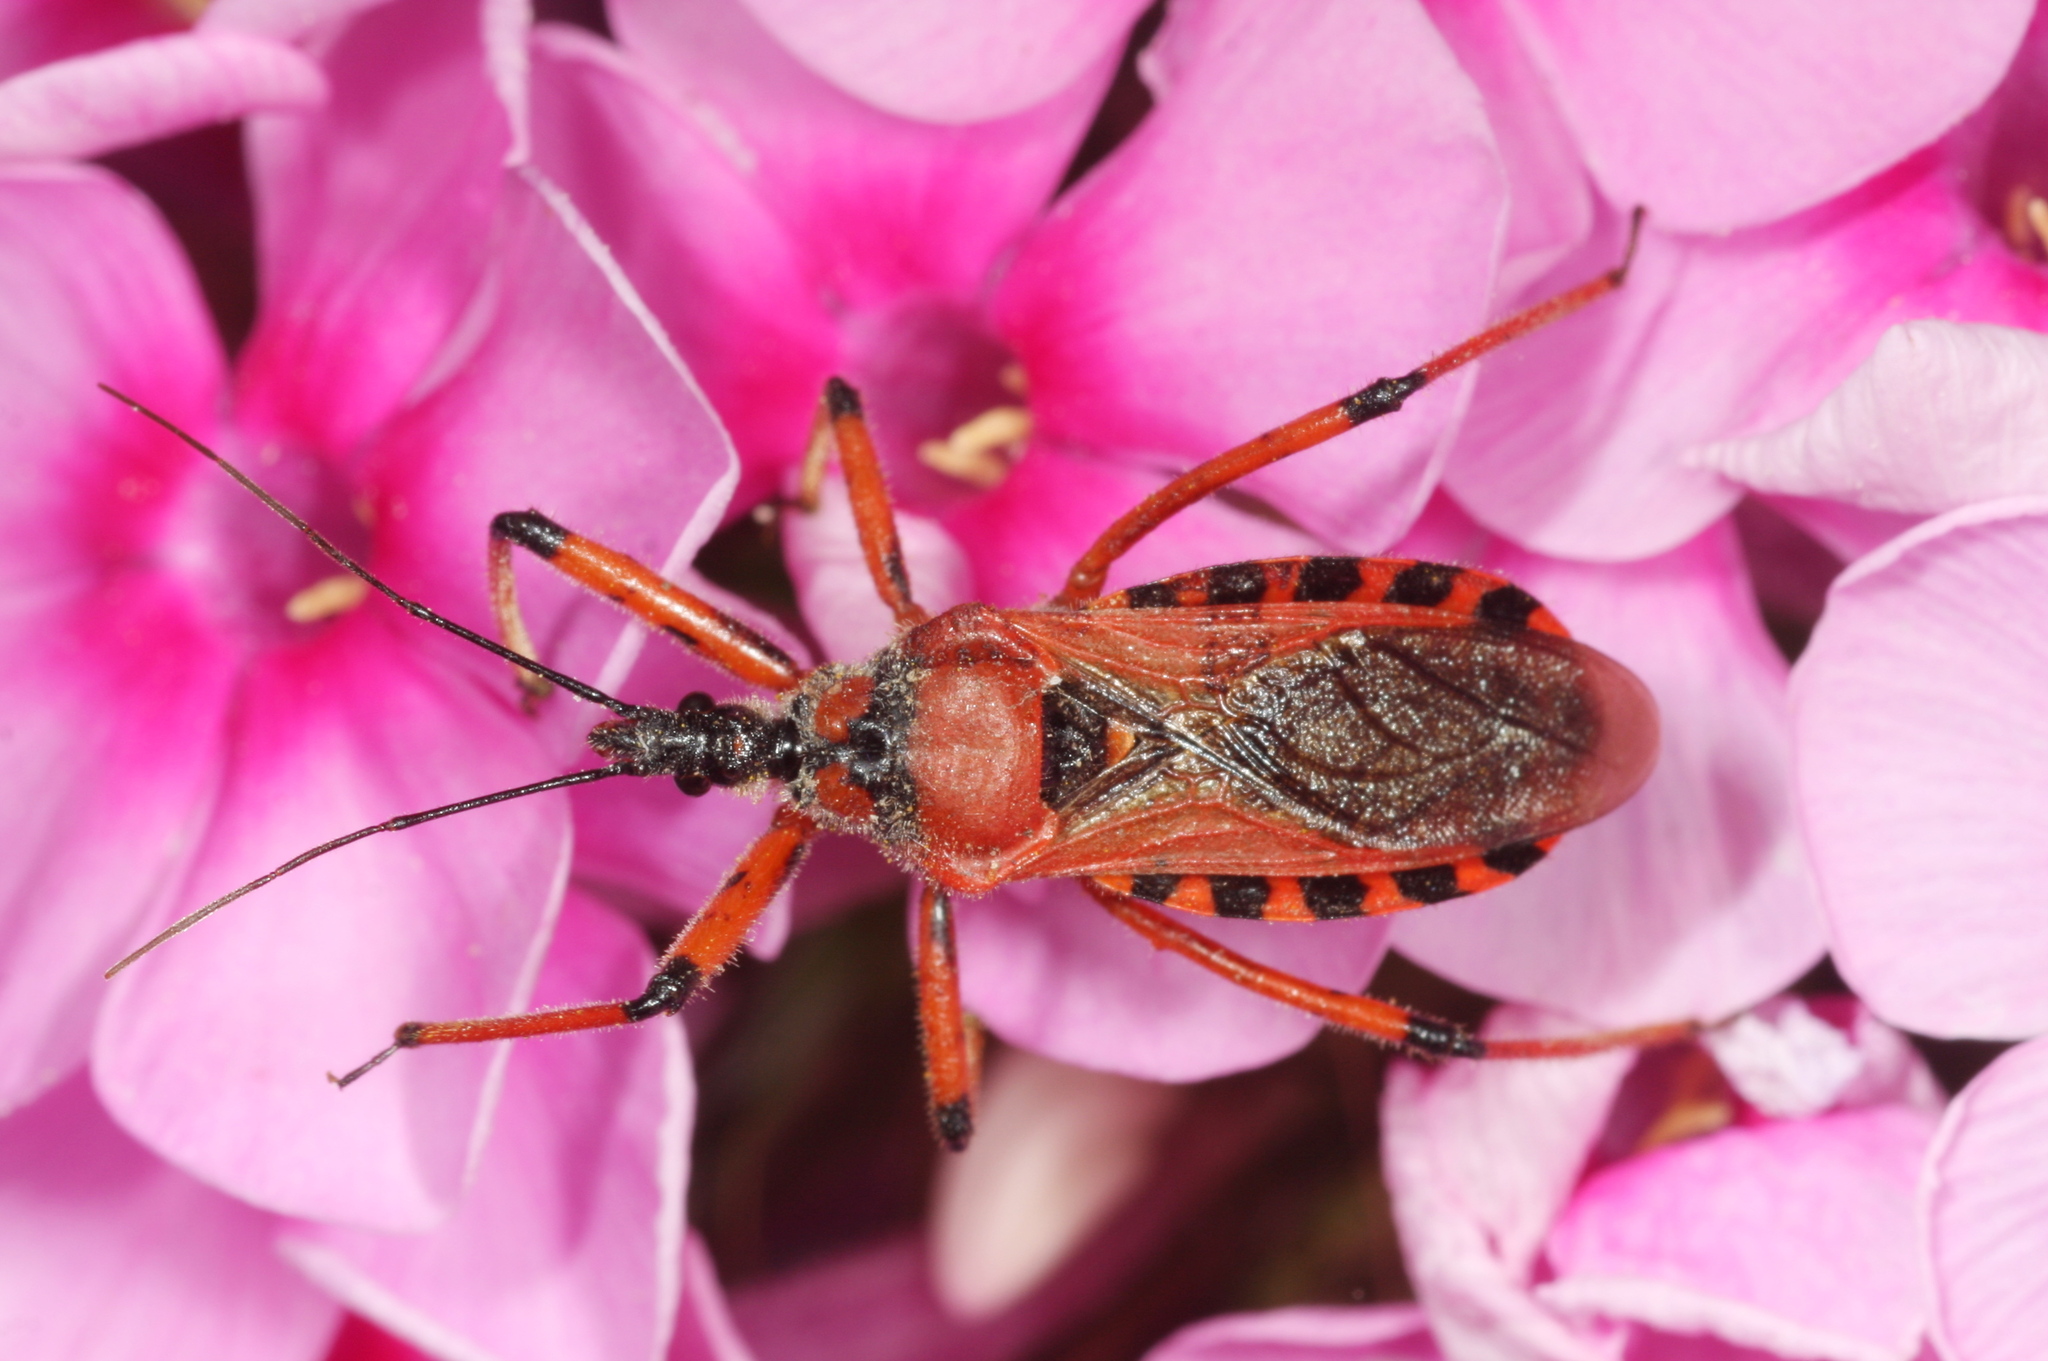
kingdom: Animalia
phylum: Arthropoda
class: Insecta
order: Hemiptera
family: Reduviidae
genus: Rhynocoris
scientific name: Rhynocoris iracundus
